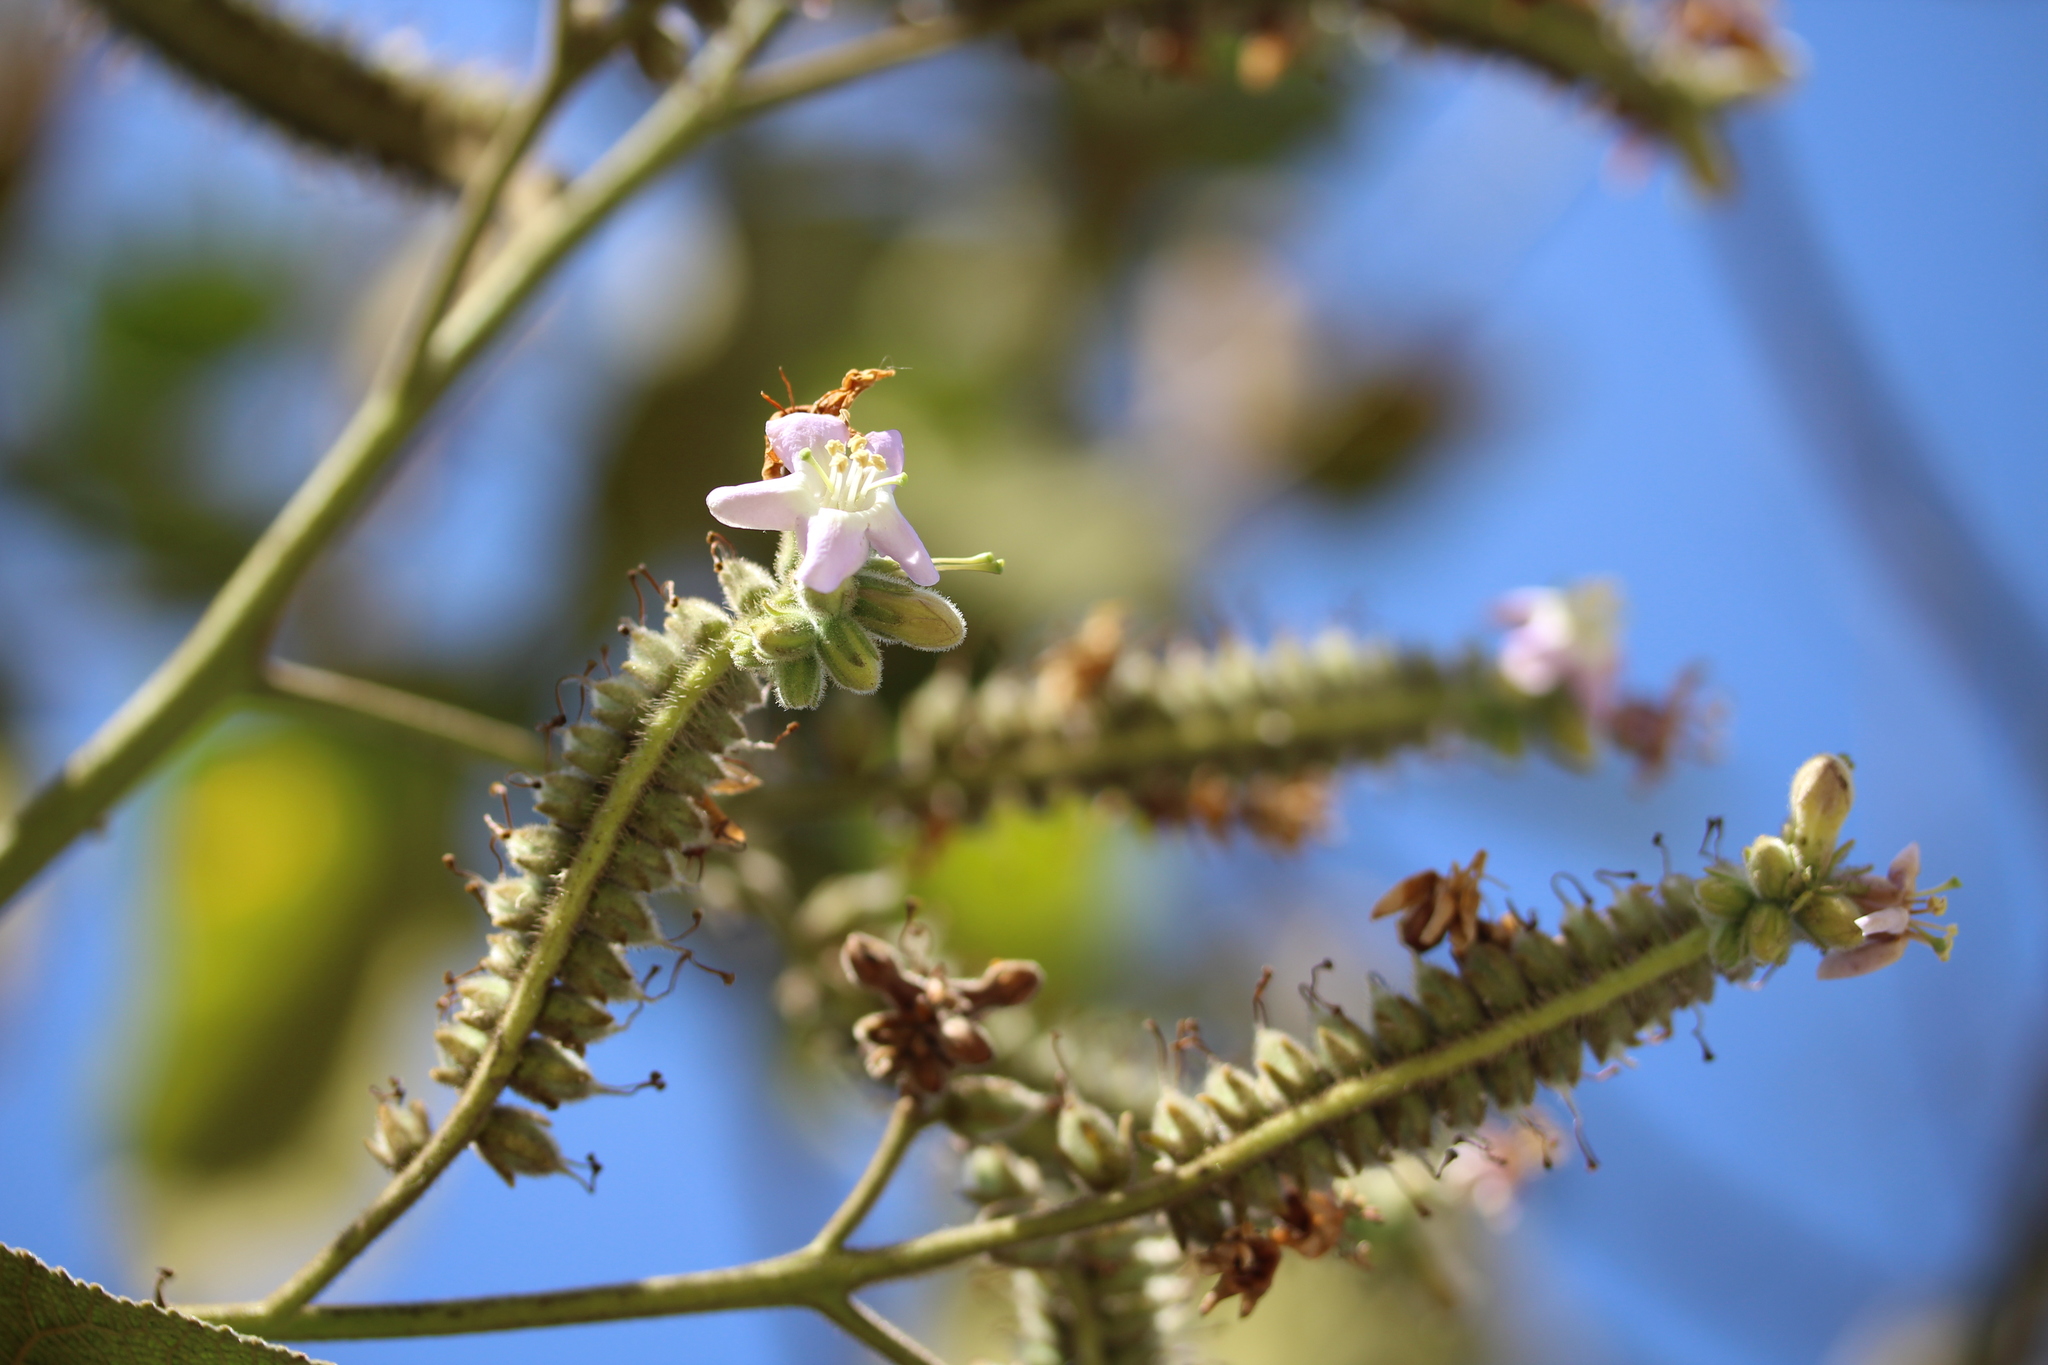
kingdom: Plantae
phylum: Tracheophyta
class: Magnoliopsida
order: Boraginales
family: Namaceae
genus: Wigandia
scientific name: Wigandia urens
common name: Caracus wigandia
